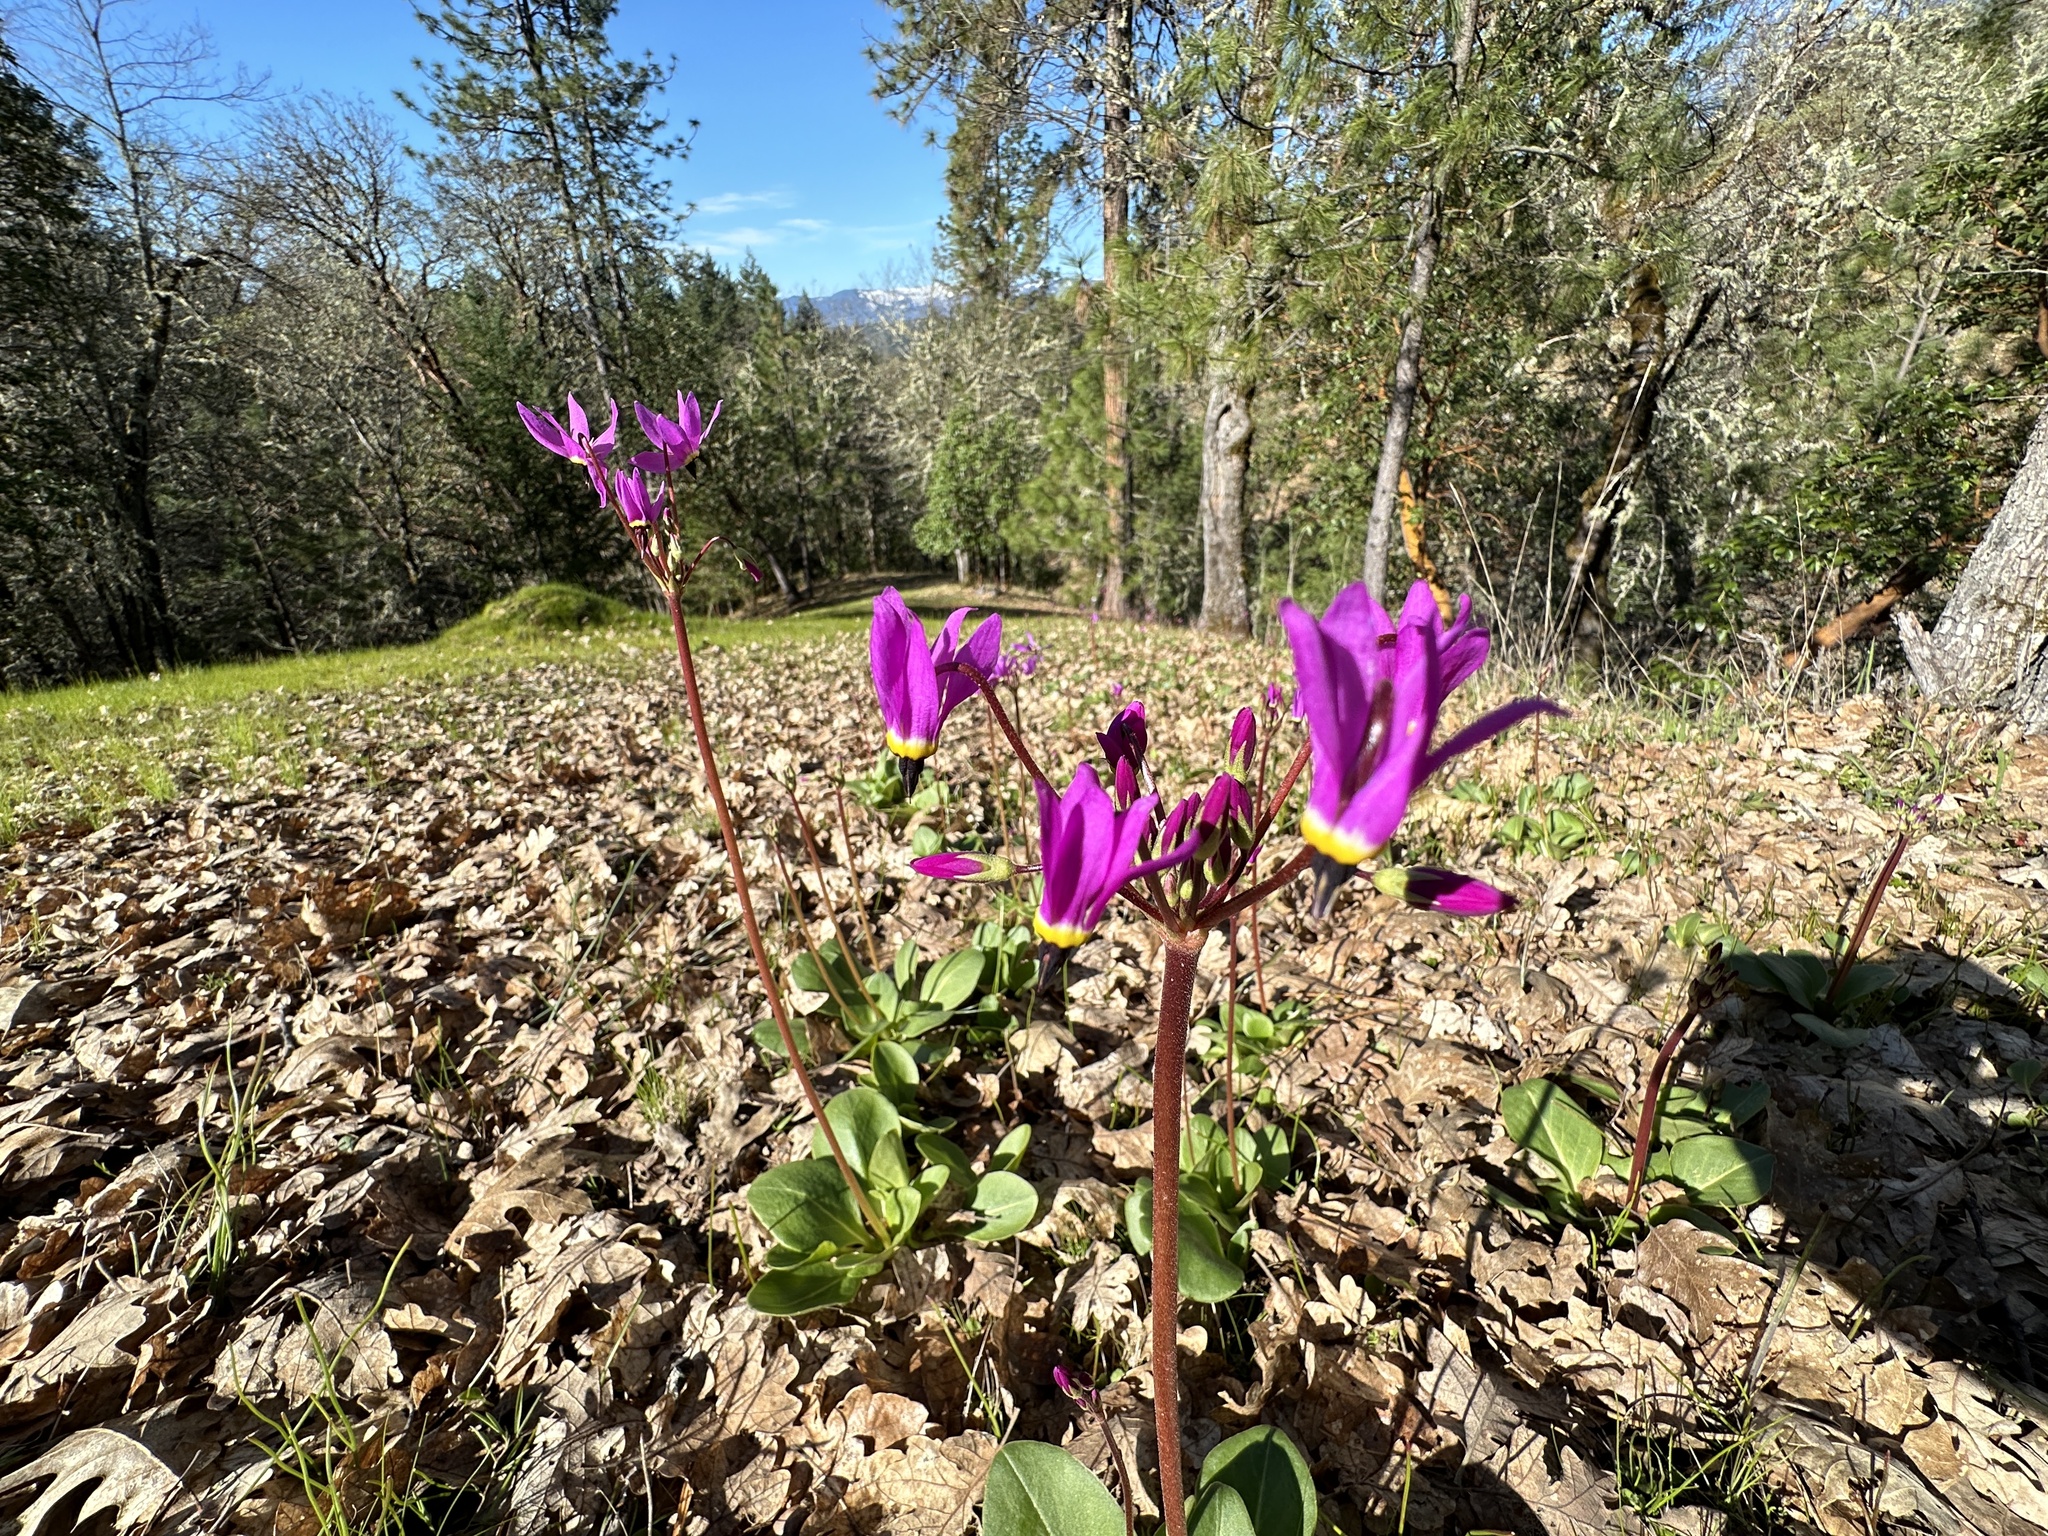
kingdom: Plantae
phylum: Tracheophyta
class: Magnoliopsida
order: Ericales
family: Primulaceae
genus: Dodecatheon
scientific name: Dodecatheon hendersonii
